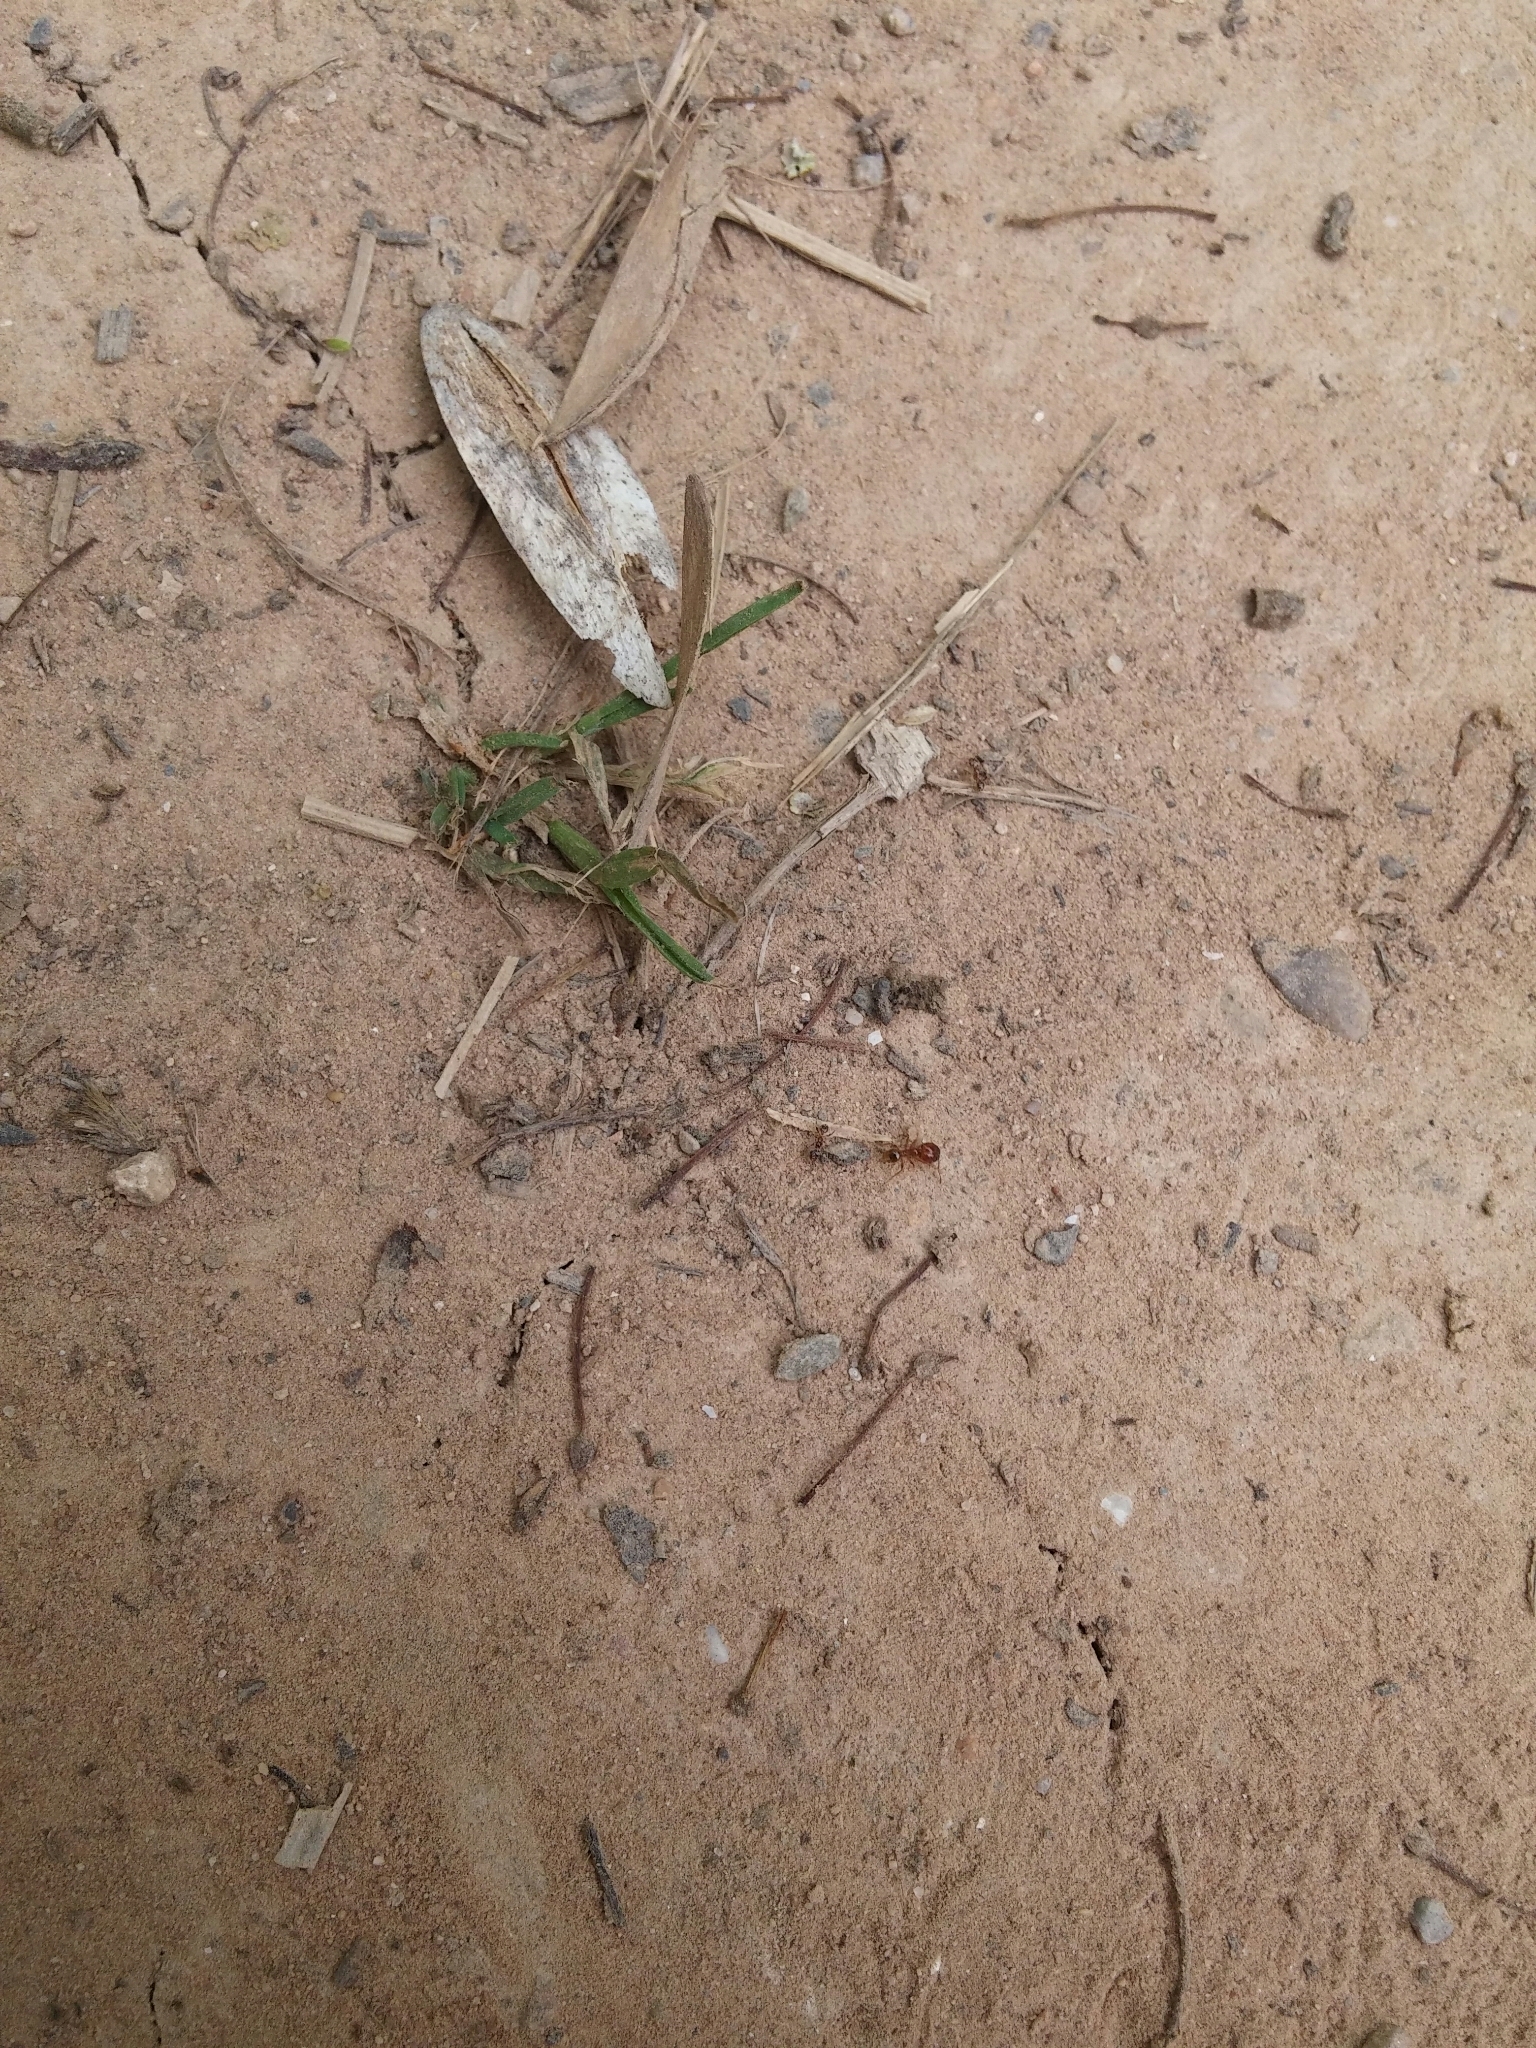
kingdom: Animalia
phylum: Arthropoda
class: Insecta
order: Hymenoptera
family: Formicidae
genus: Pheidole
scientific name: Pheidole pallidula
